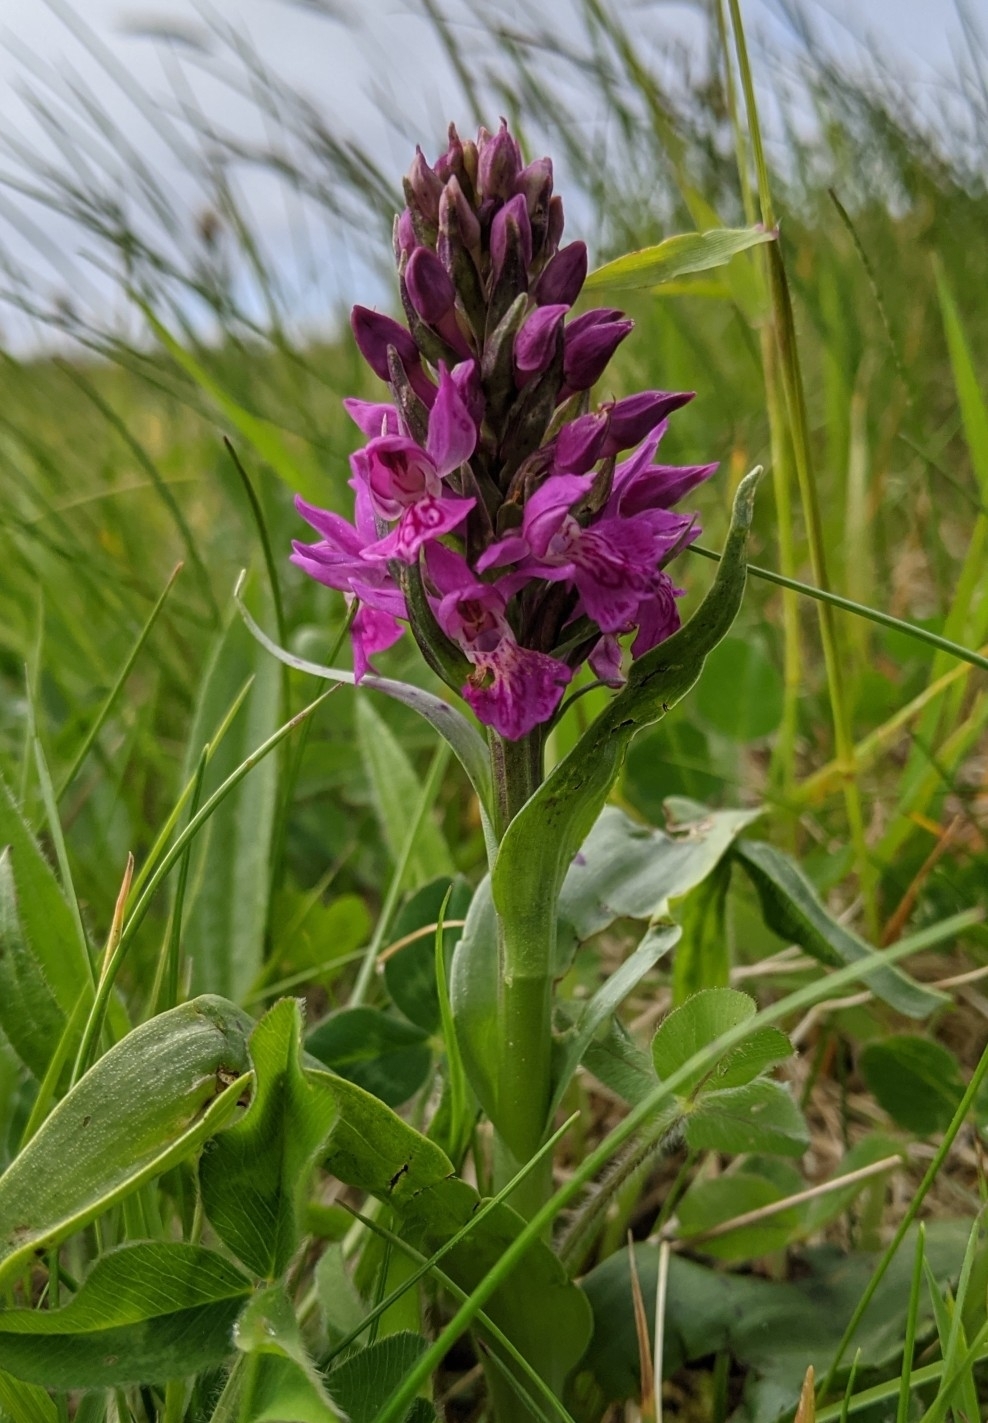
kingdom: Plantae
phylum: Tracheophyta
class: Liliopsida
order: Asparagales
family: Orchidaceae
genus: Dactylorhiza
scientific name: Dactylorhiza majalis
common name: Marsh orchid
